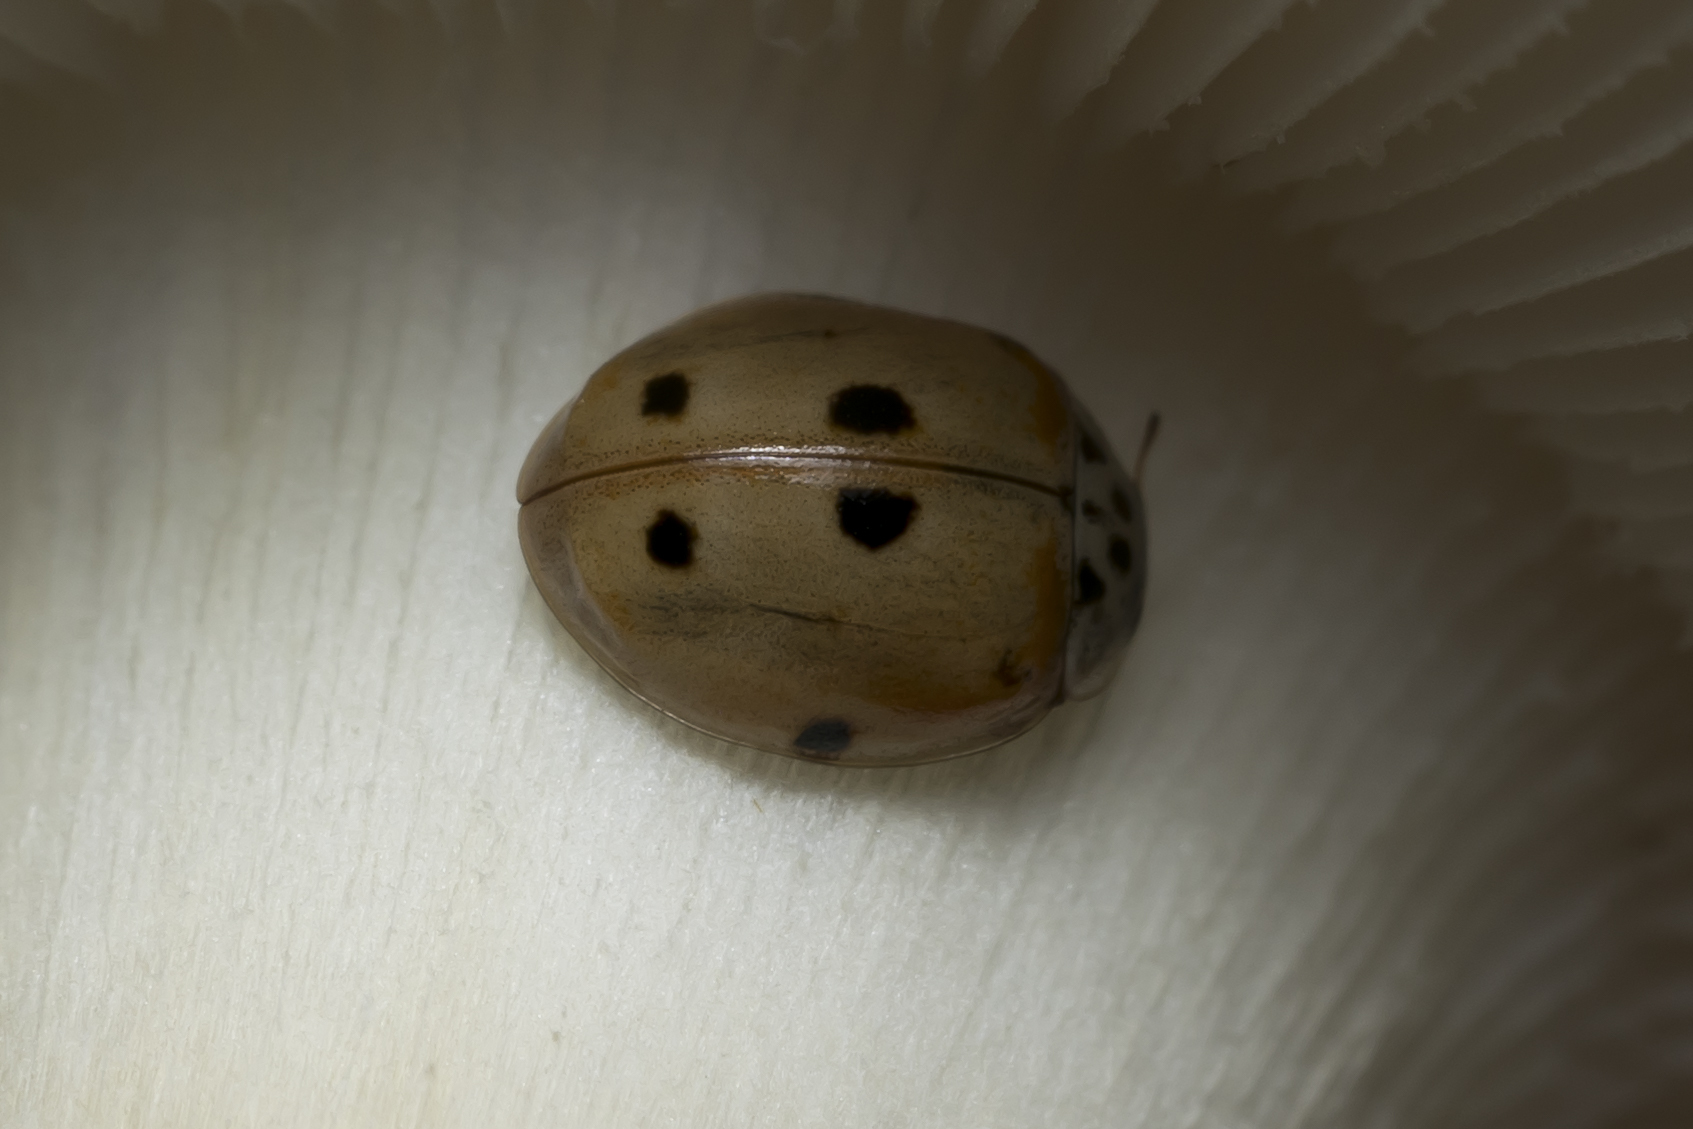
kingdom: Animalia
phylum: Arthropoda
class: Insecta
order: Coleoptera
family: Coccinellidae
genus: Adalia
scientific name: Adalia decempunctata
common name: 10-spot ladybird
